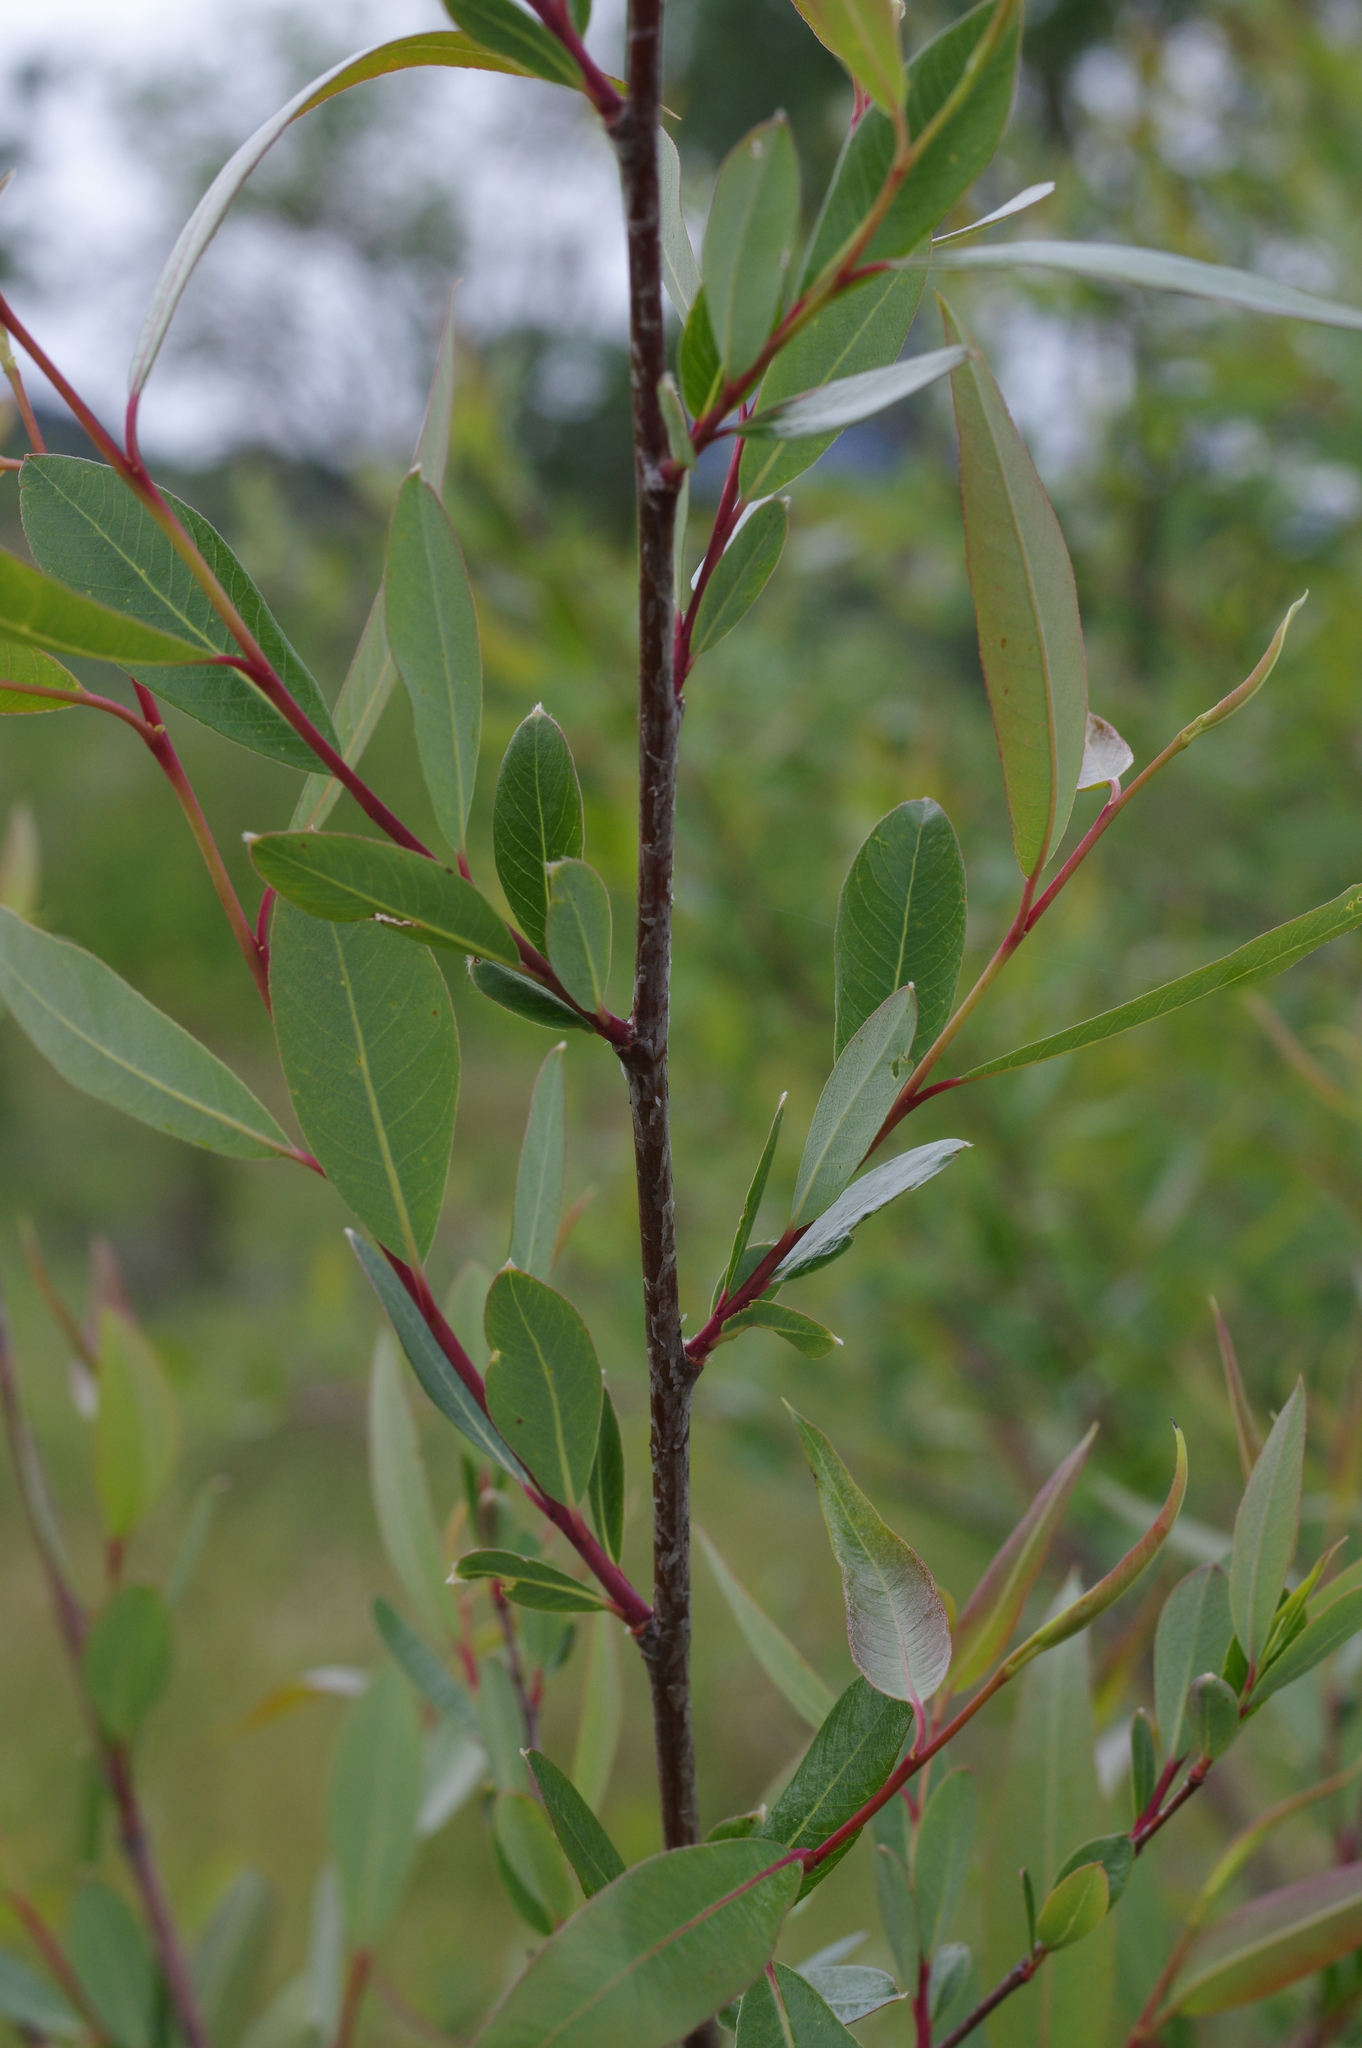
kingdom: Plantae
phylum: Tracheophyta
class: Magnoliopsida
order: Malpighiales
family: Salicaceae
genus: Salix
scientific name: Salix laevigata
